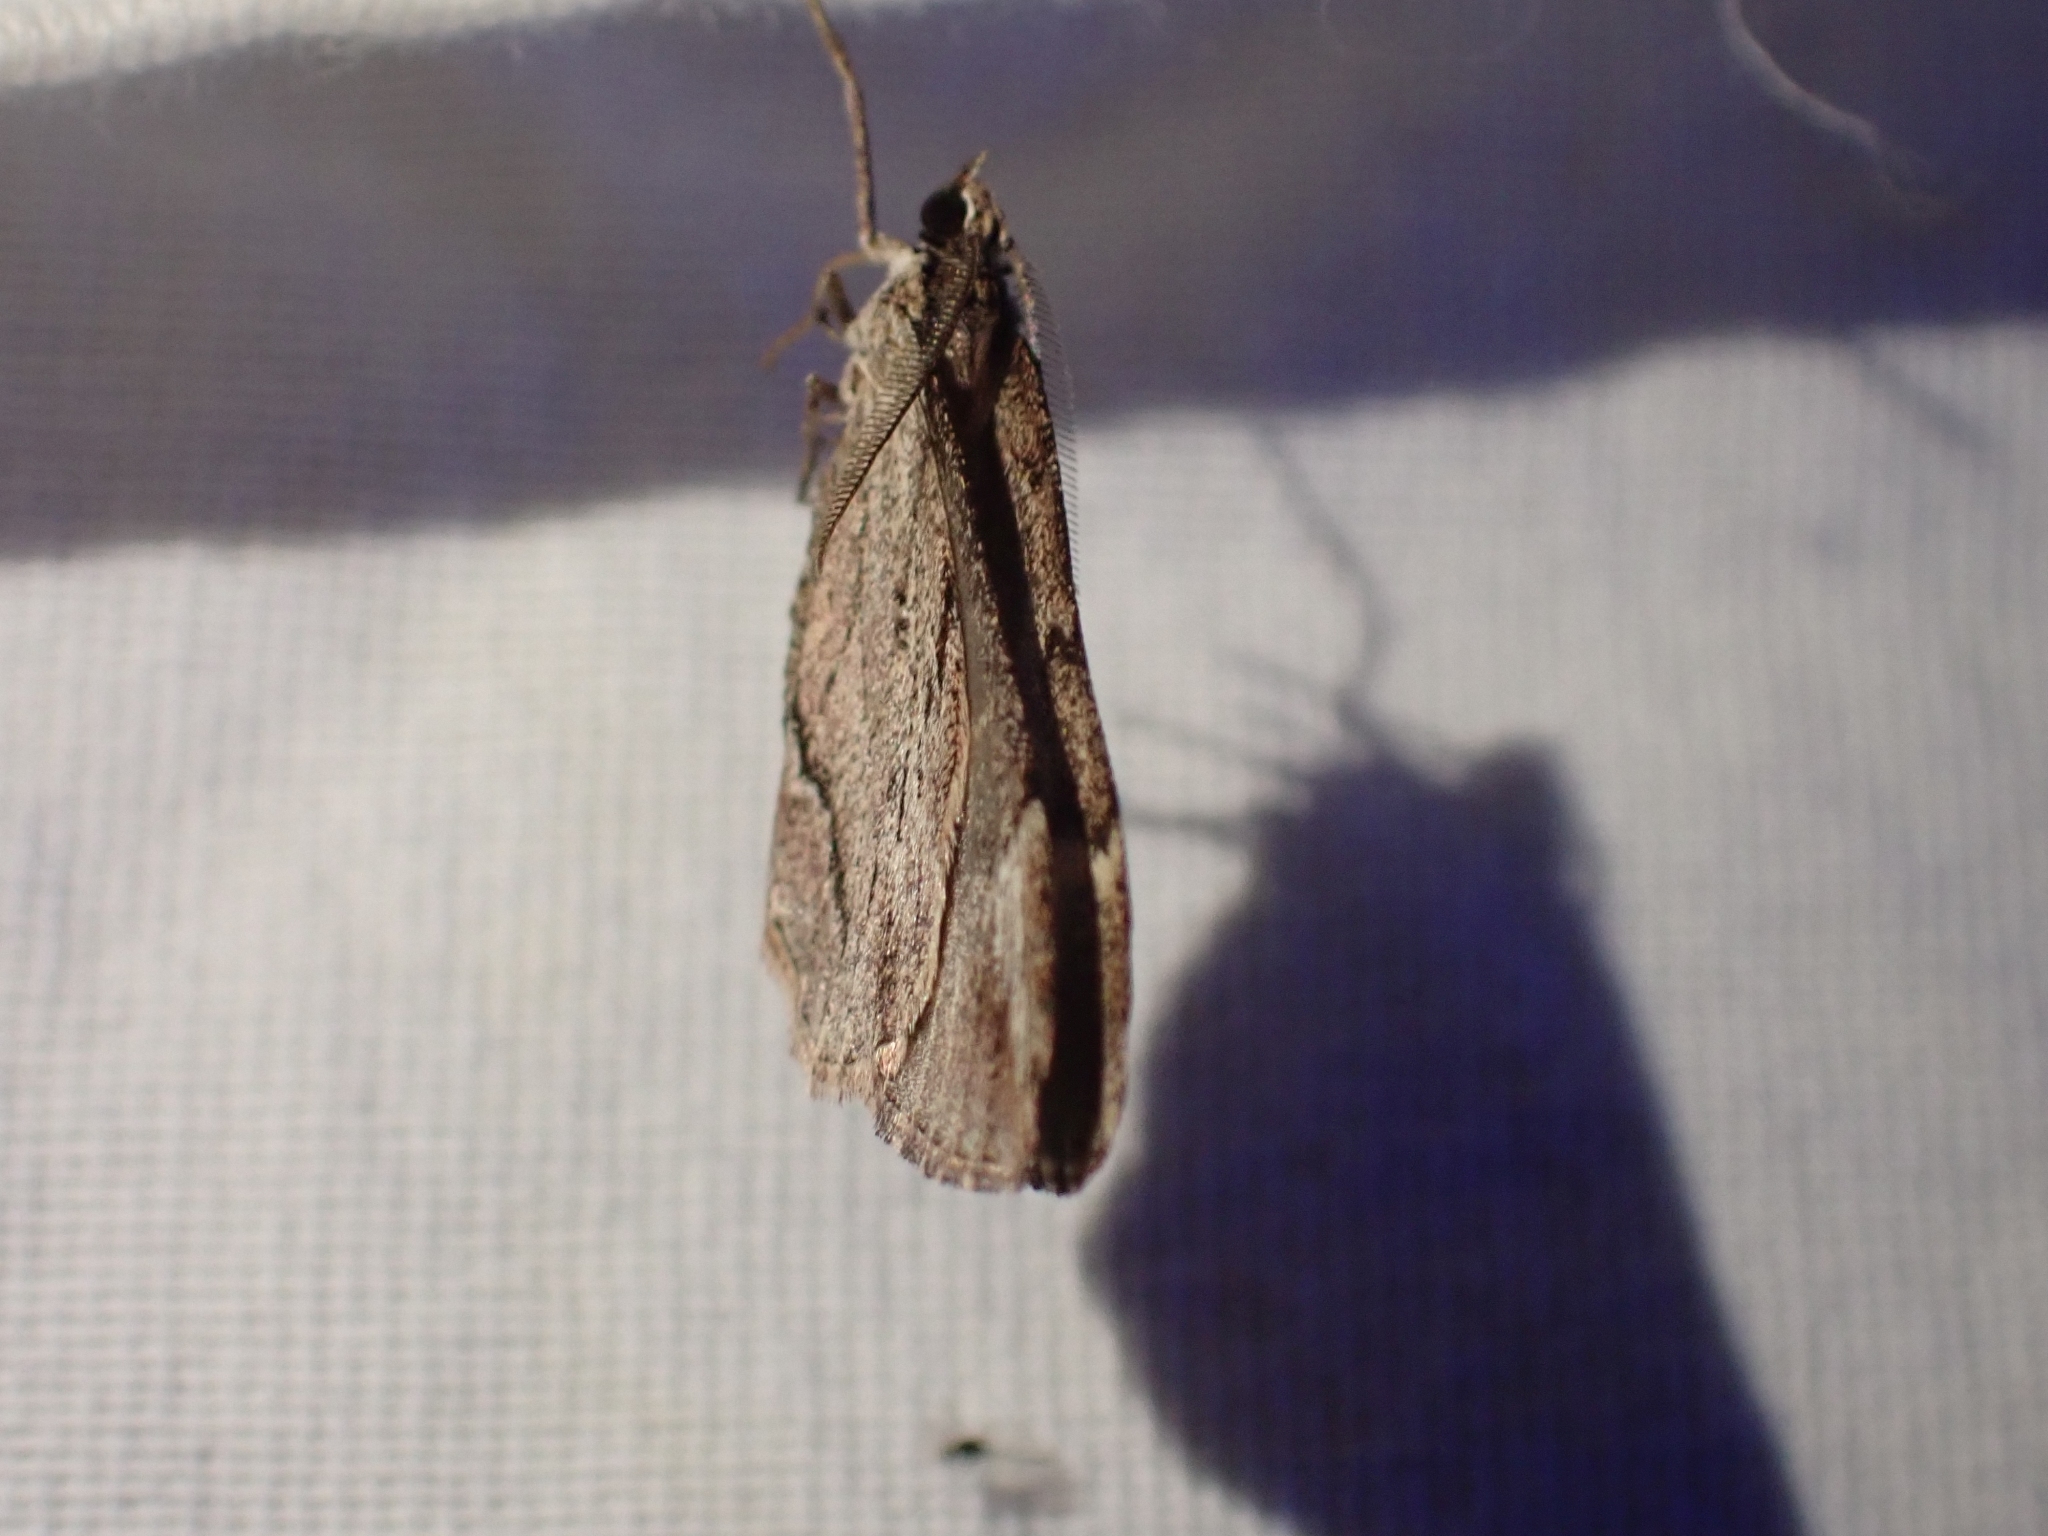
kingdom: Animalia
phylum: Arthropoda
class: Insecta
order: Lepidoptera
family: Geometridae
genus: Stamnoctenis
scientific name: Stamnoctenis pearsalli
